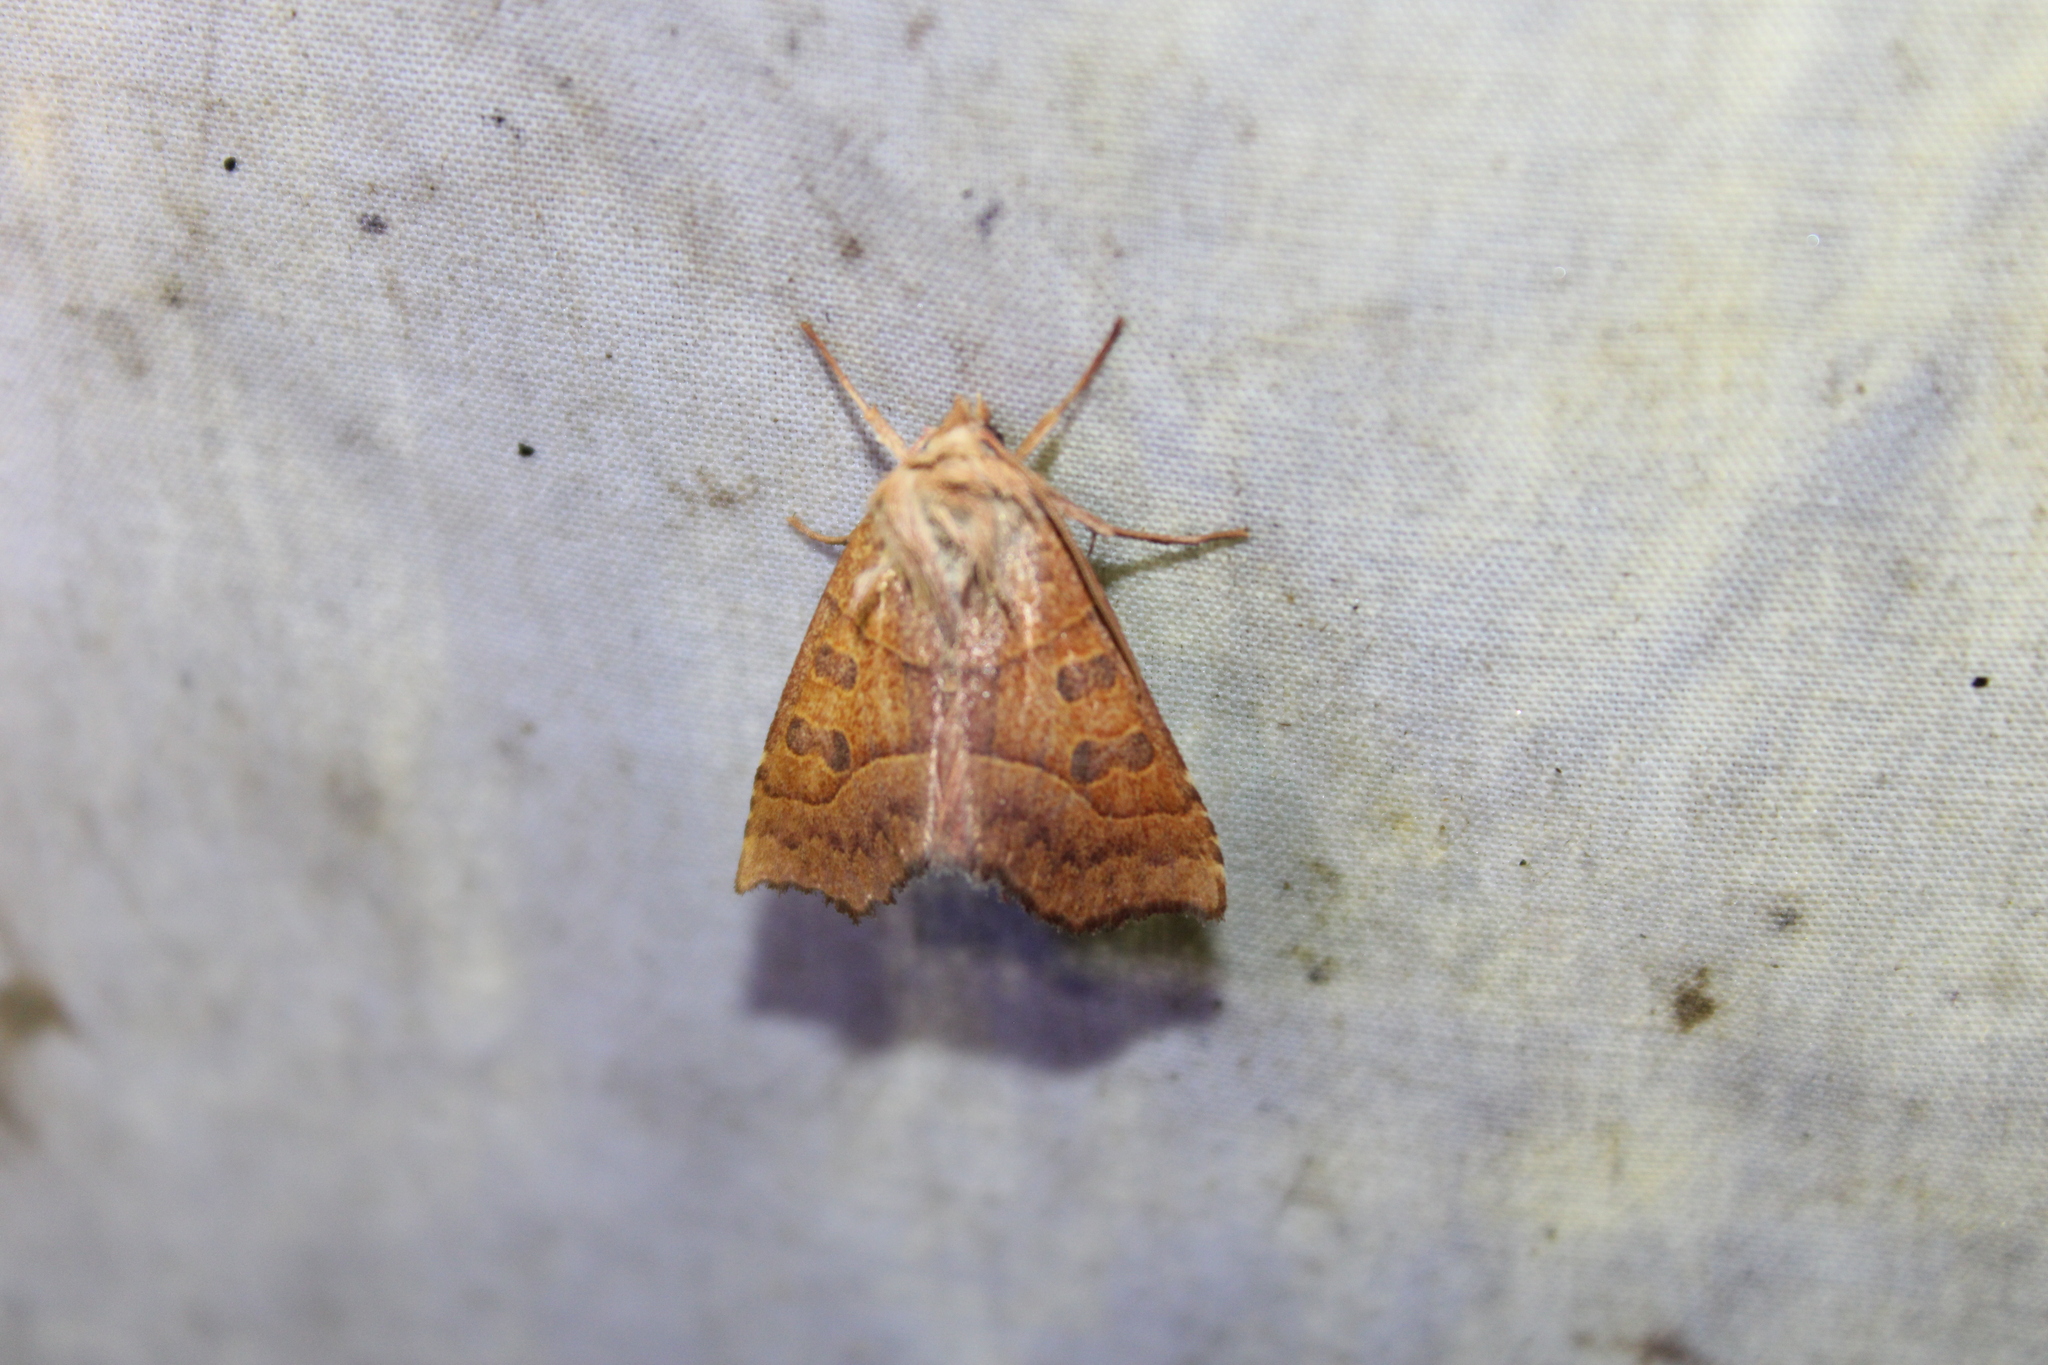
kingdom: Animalia
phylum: Arthropoda
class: Insecta
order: Lepidoptera
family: Noctuidae
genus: Eucirroedia
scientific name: Eucirroedia pampina
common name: Scalloped sallow
